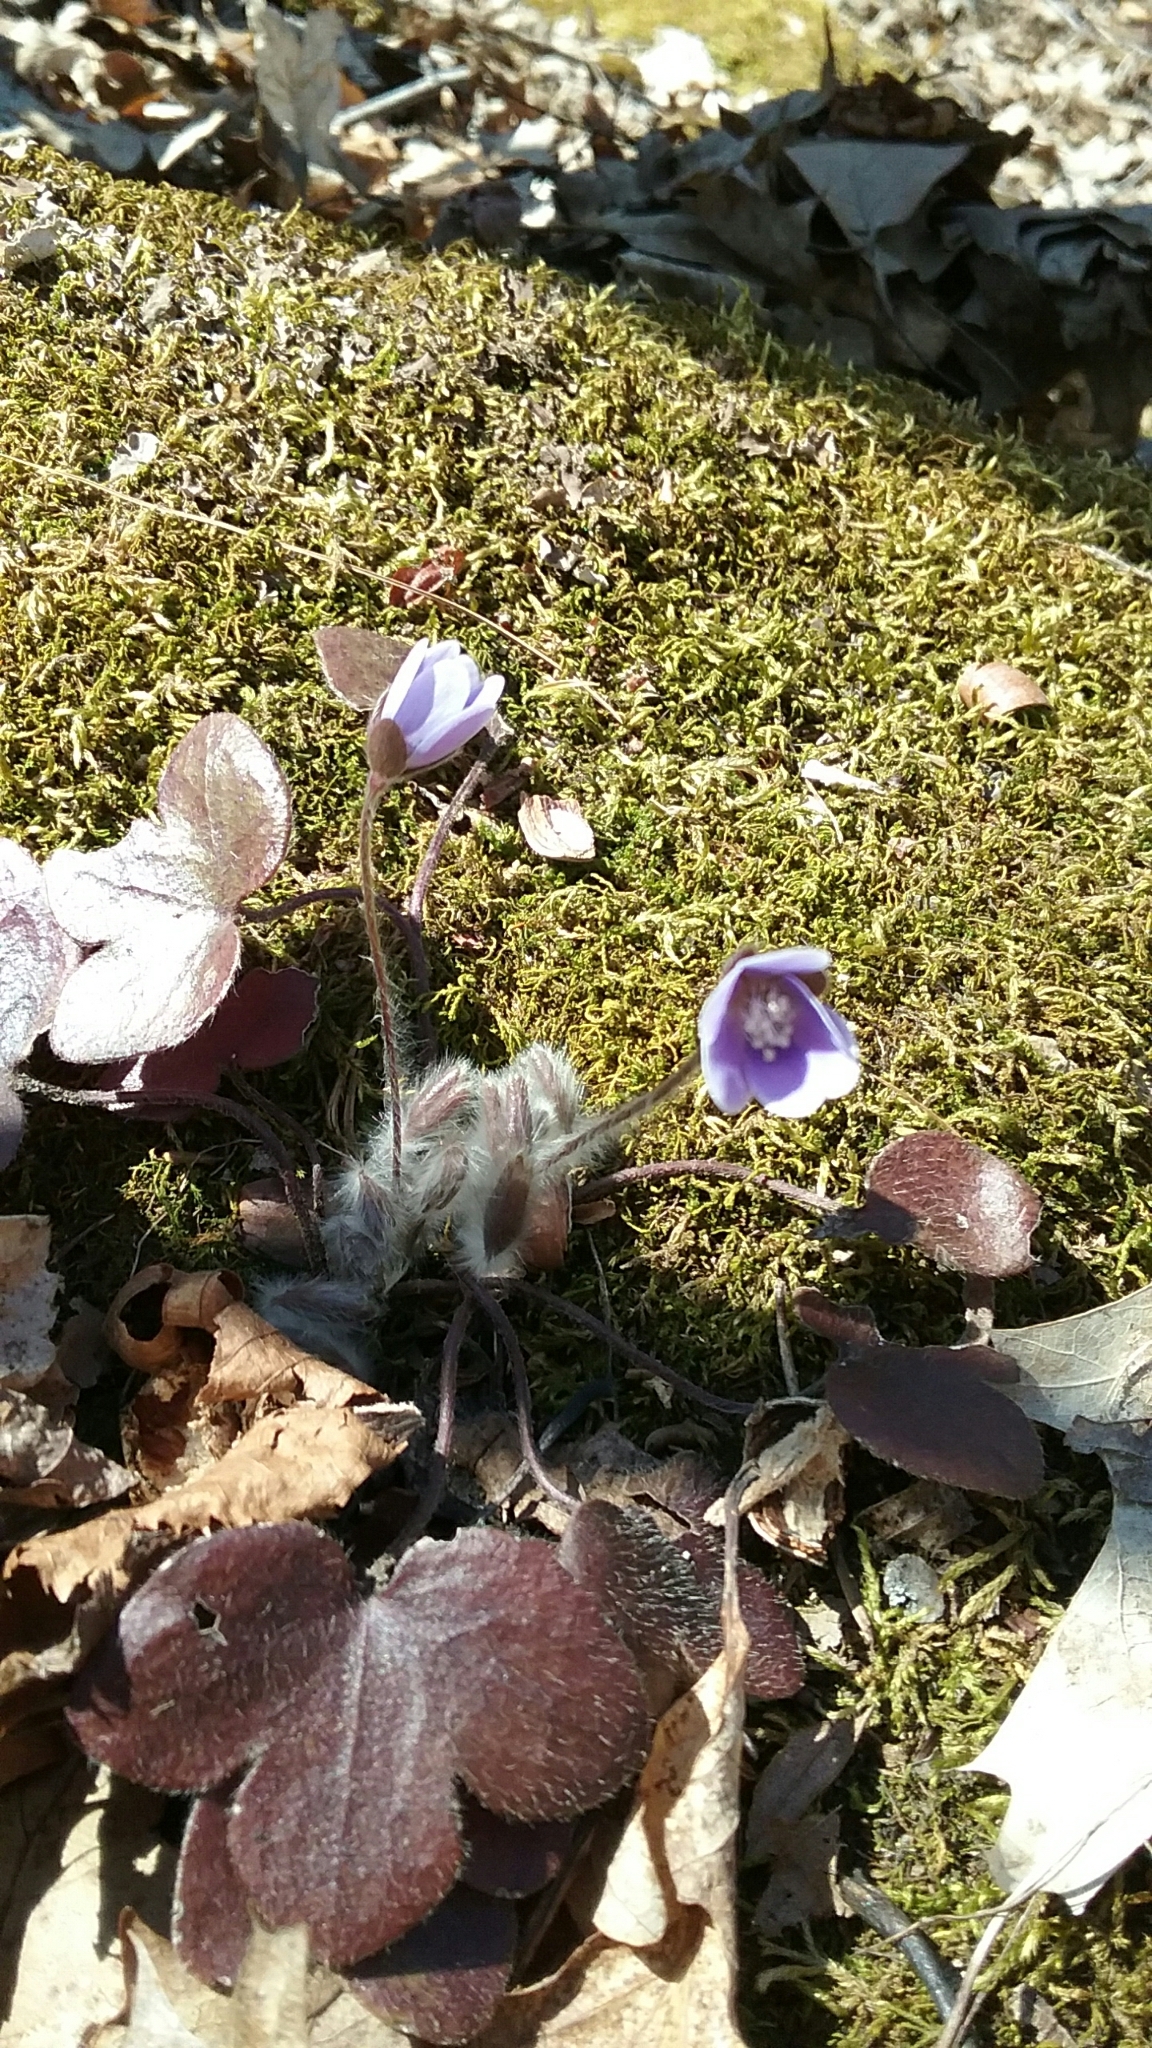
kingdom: Plantae
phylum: Tracheophyta
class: Magnoliopsida
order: Ranunculales
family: Ranunculaceae
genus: Hepatica
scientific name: Hepatica americana
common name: American hepatica
